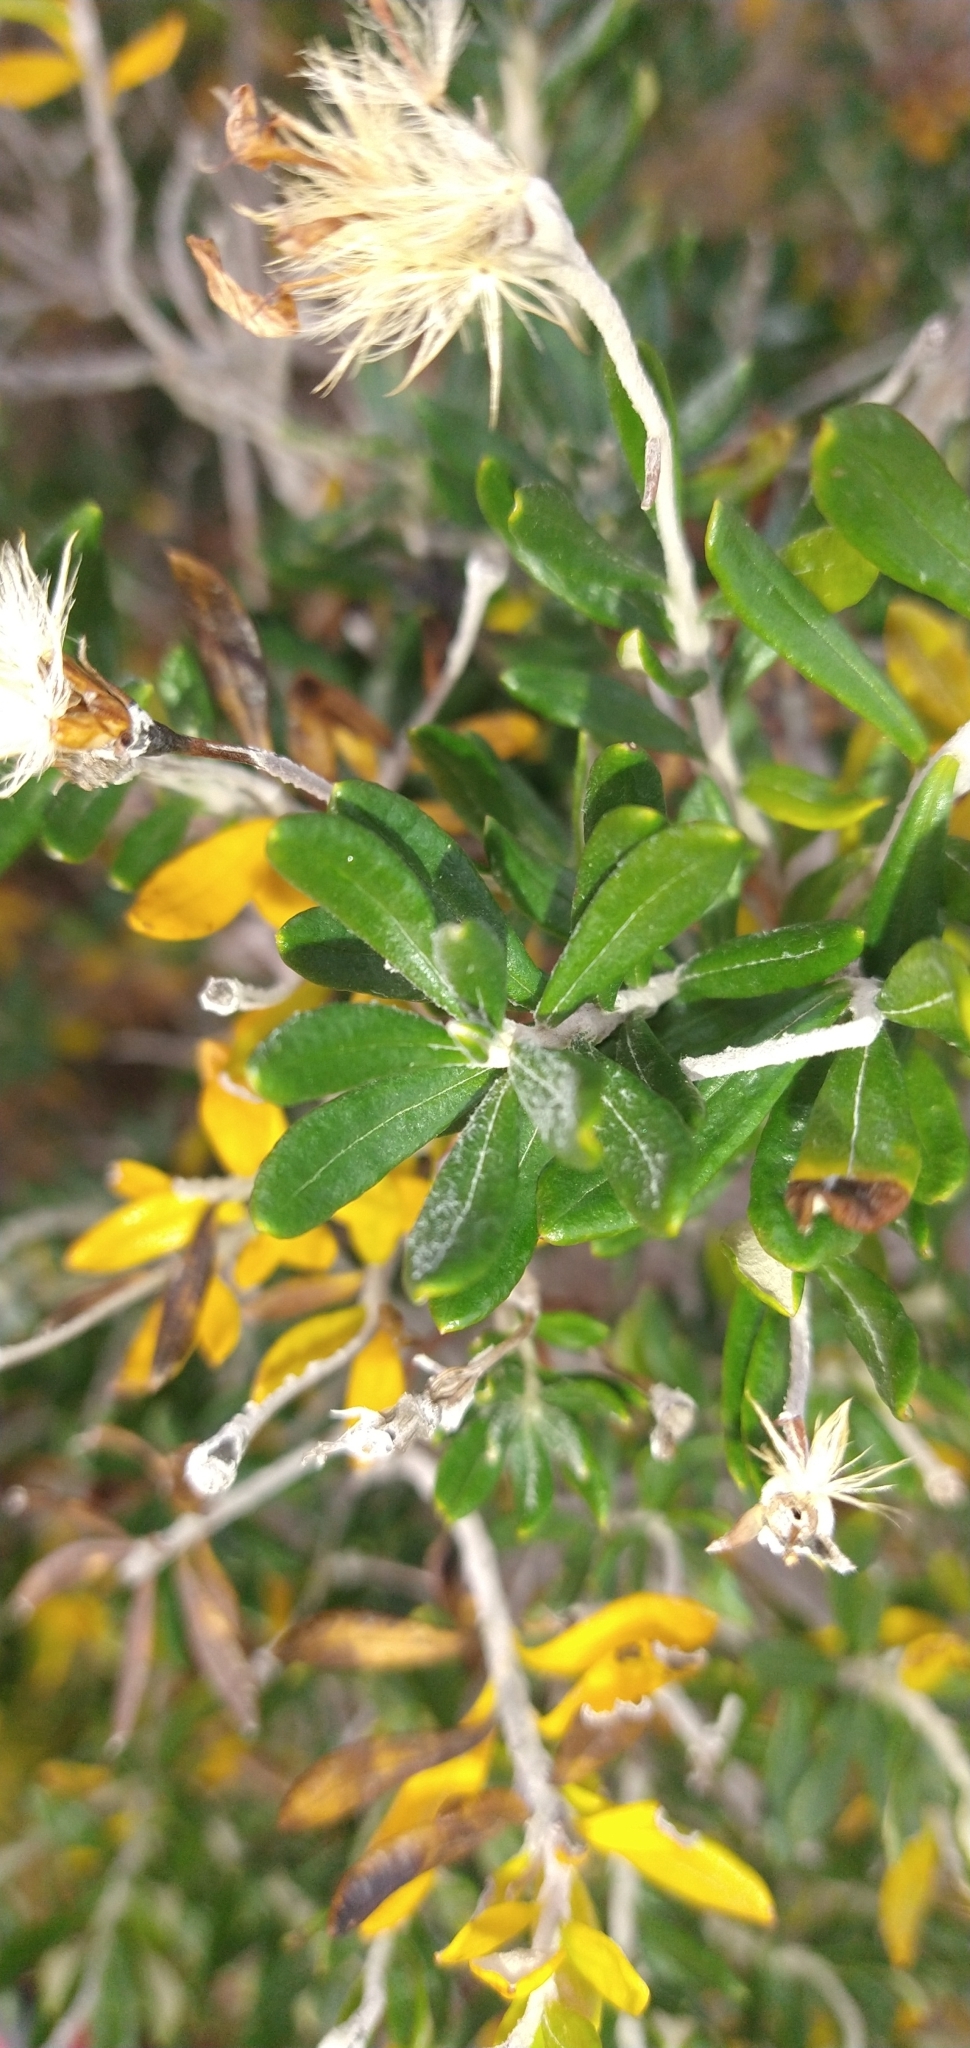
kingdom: Plantae
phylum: Tracheophyta
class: Magnoliopsida
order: Asterales
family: Asteraceae
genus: Chiliotrichum
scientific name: Chiliotrichum diffusum
